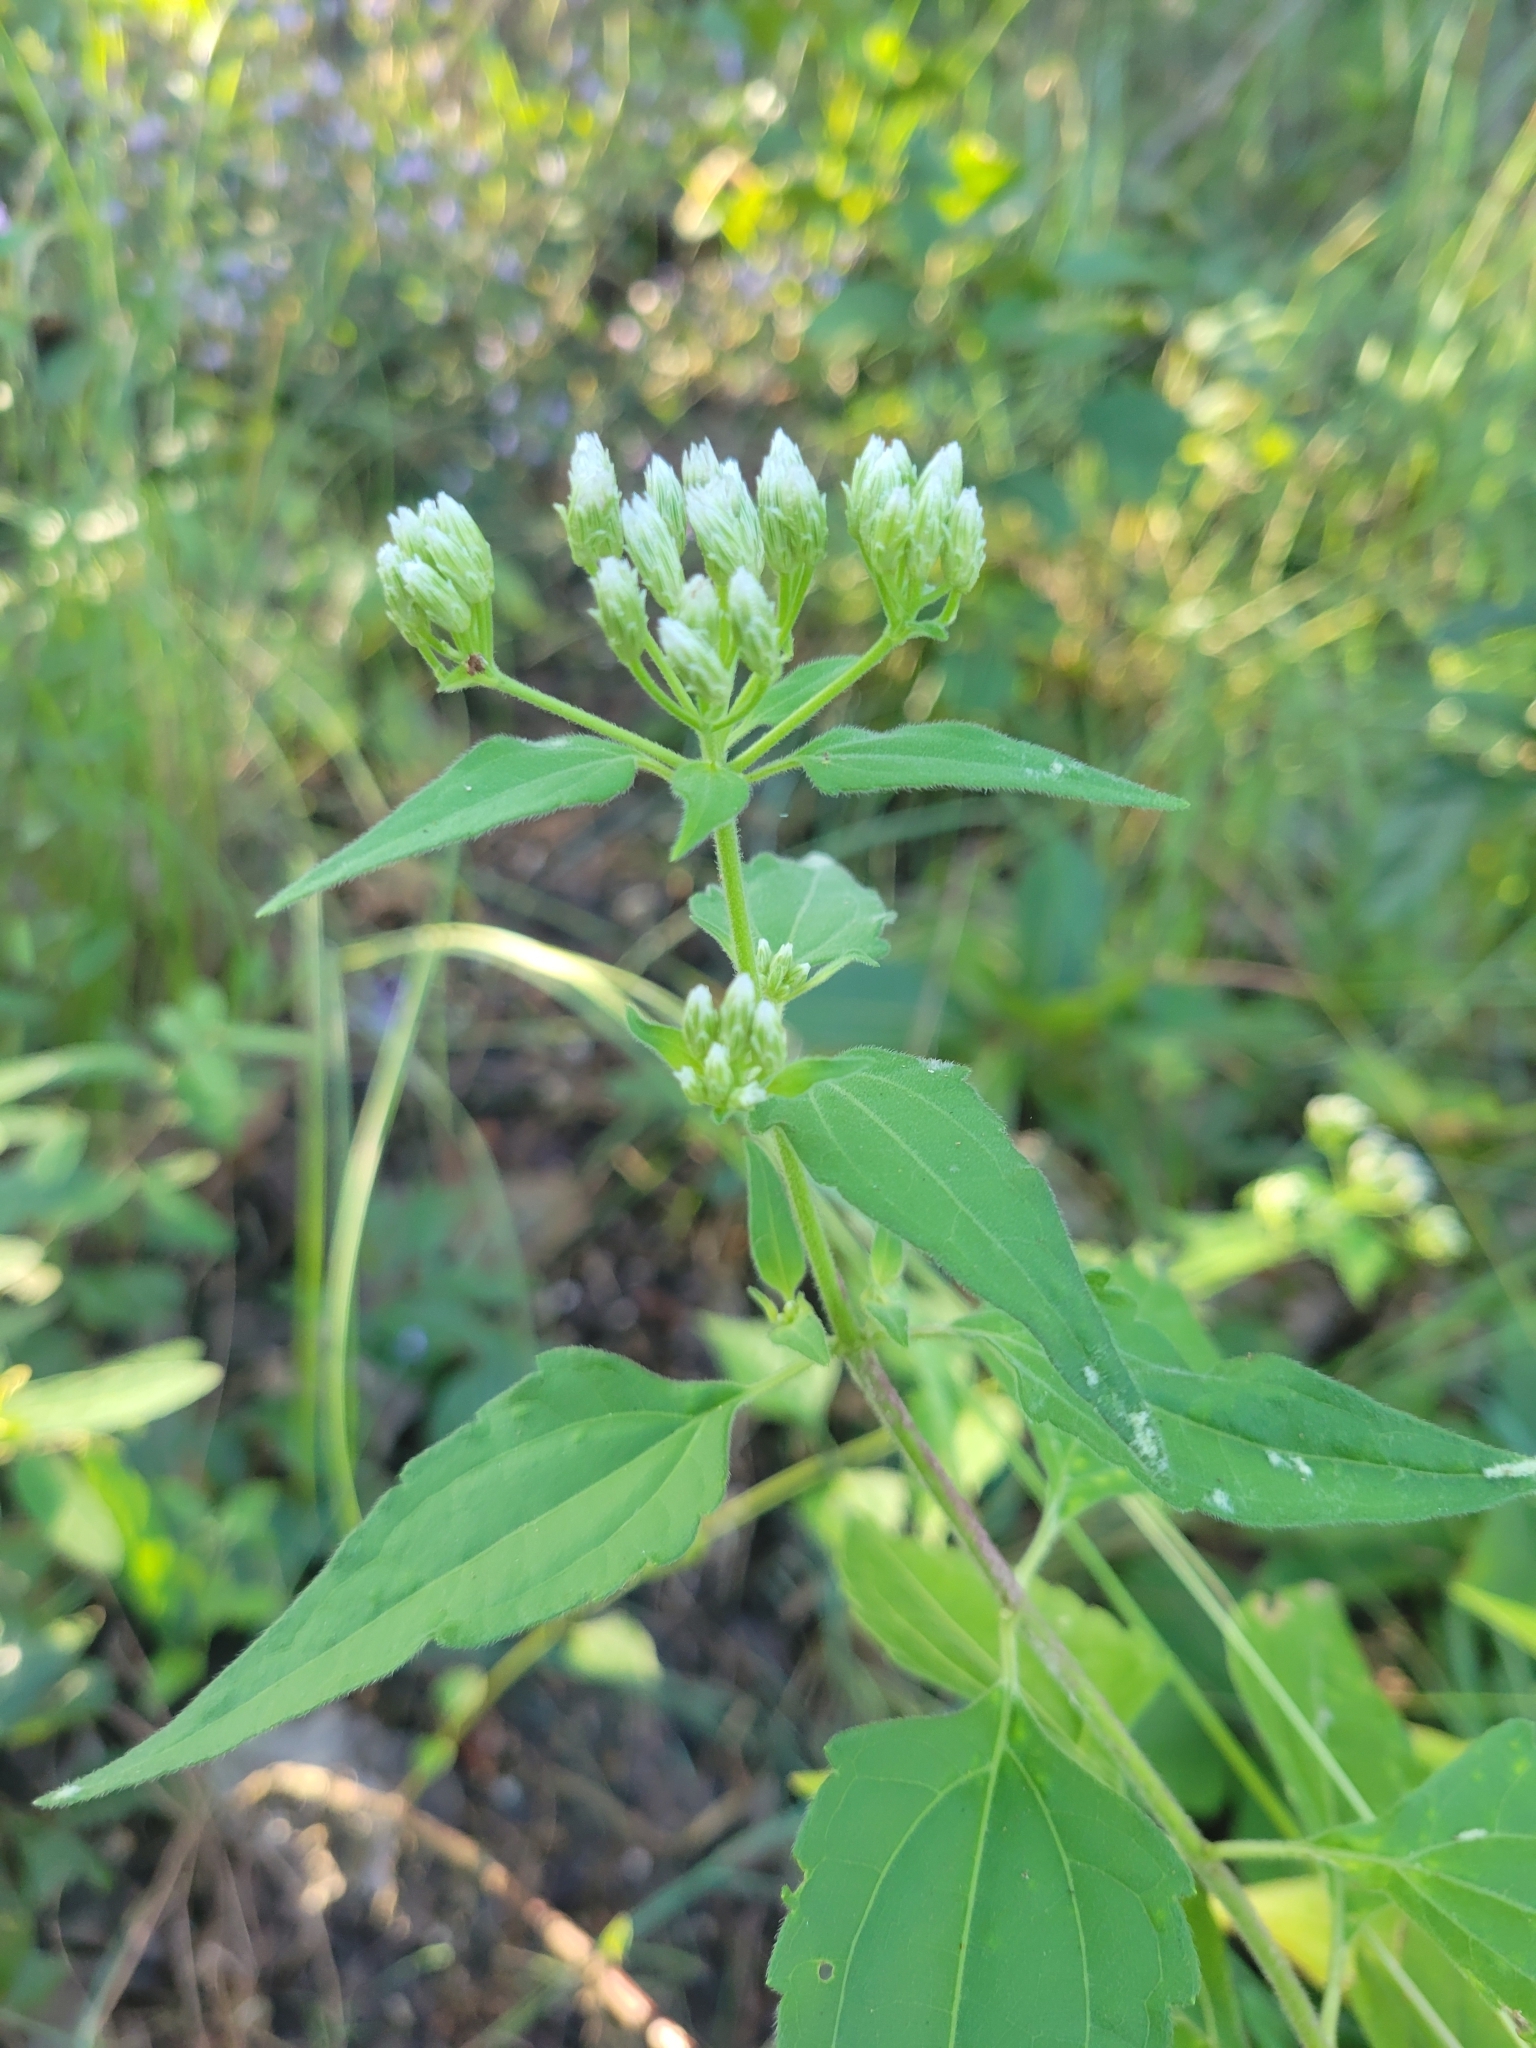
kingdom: Plantae
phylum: Tracheophyta
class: Magnoliopsida
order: Asterales
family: Asteraceae
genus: Chromolaena
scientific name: Chromolaena odorata
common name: Siamweed
